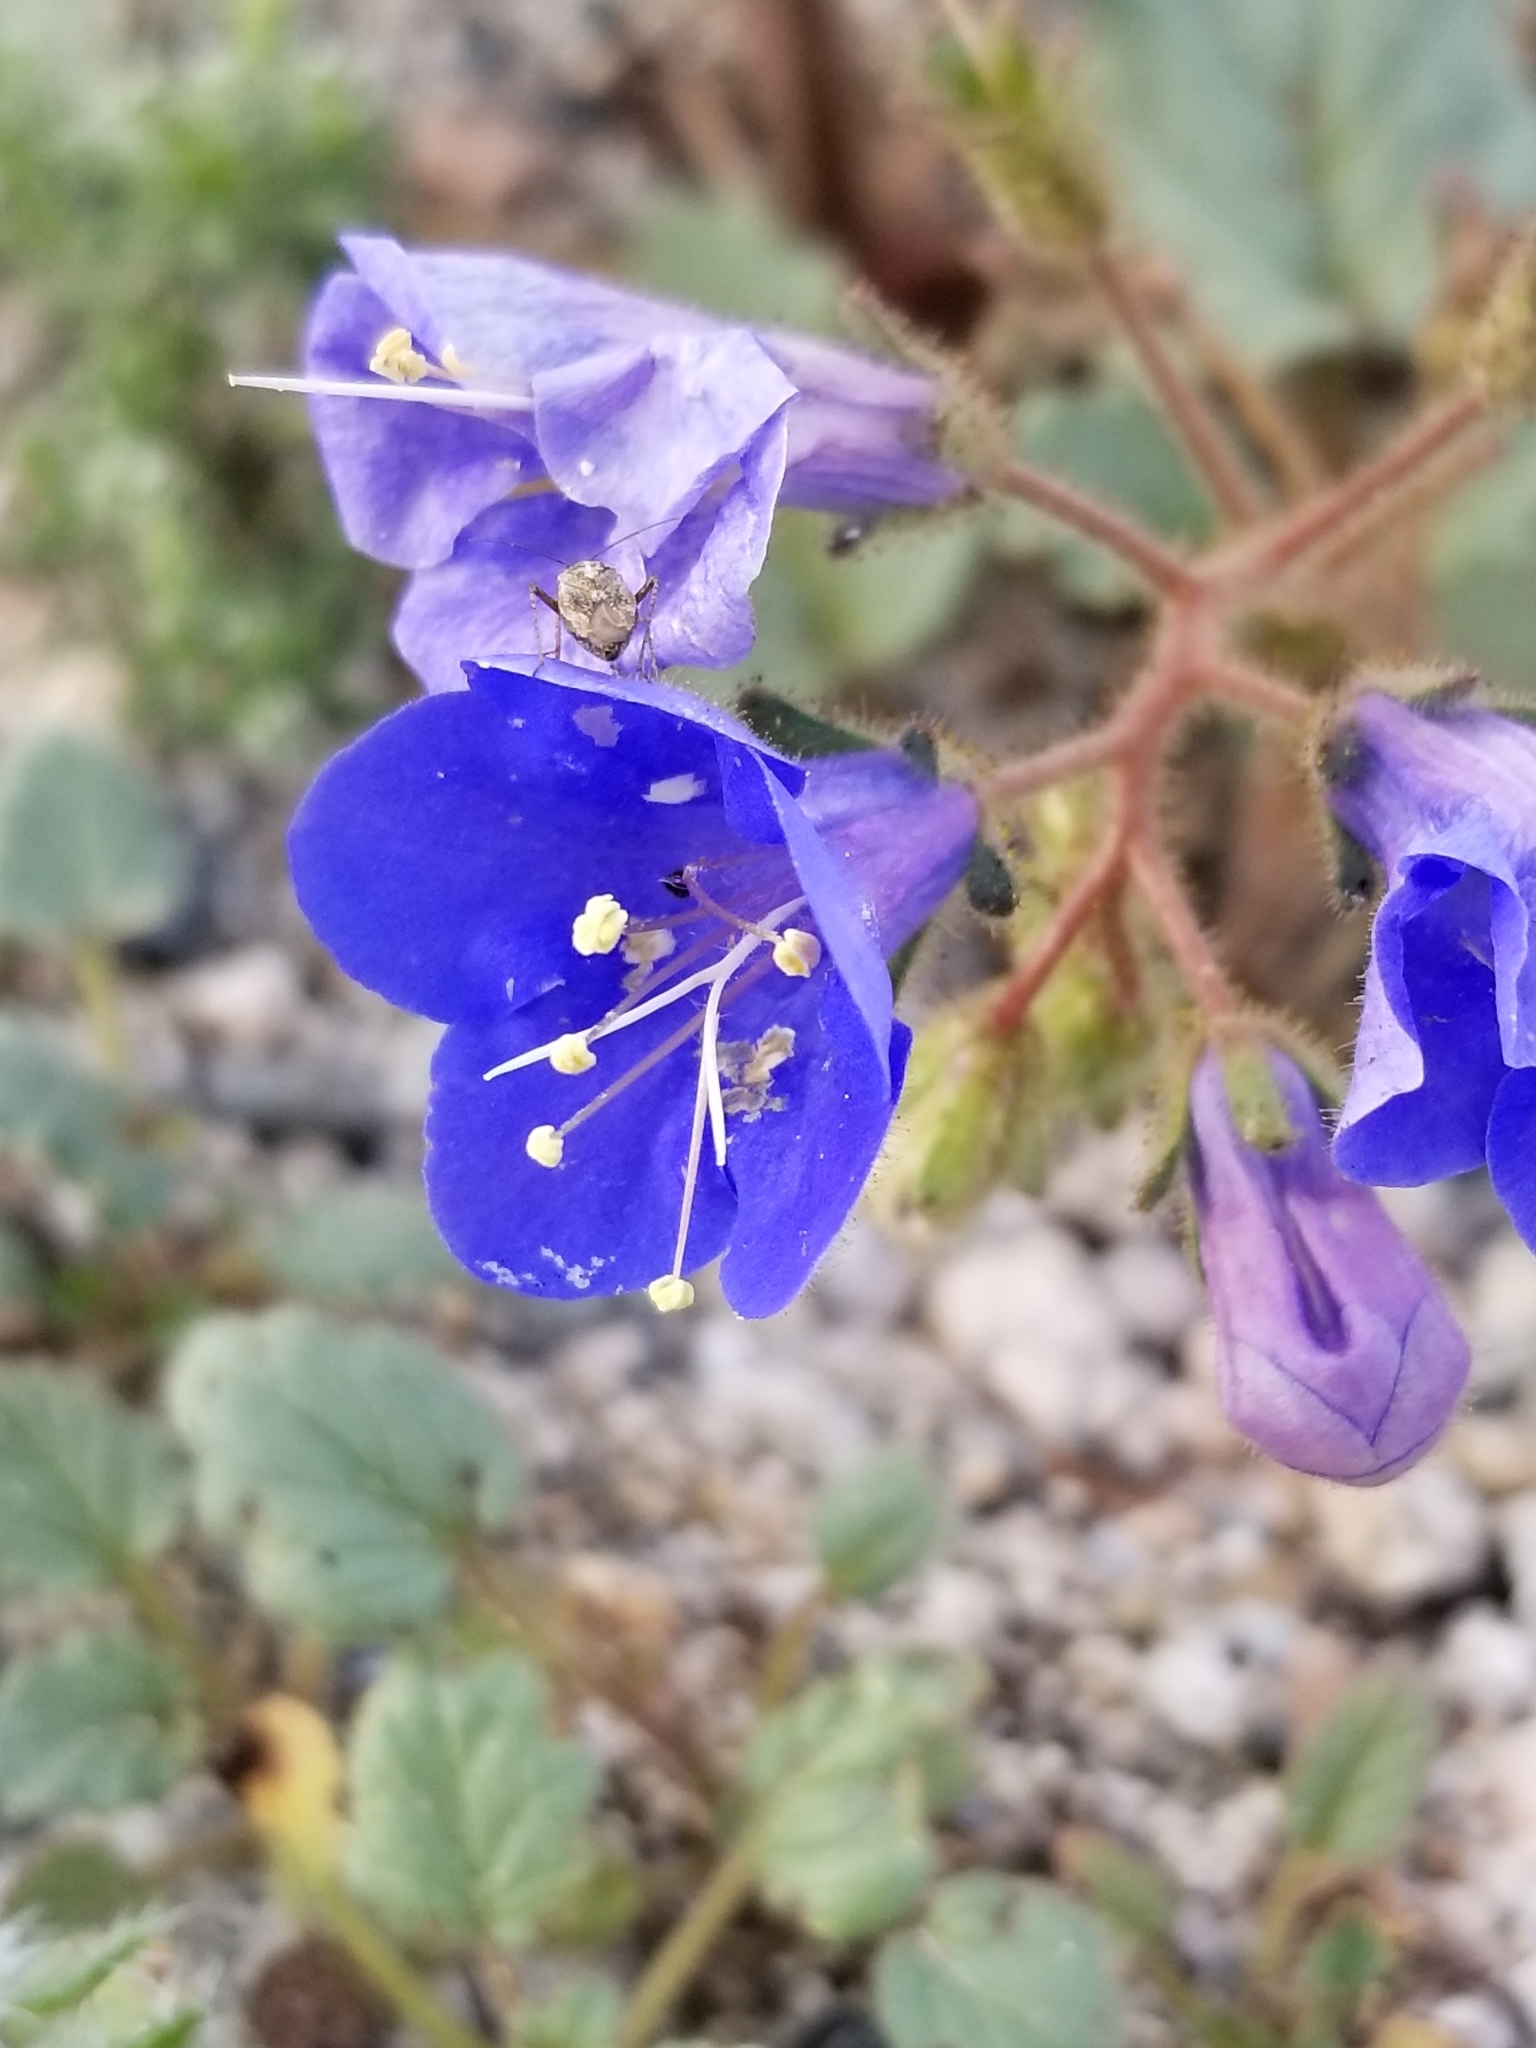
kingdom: Plantae
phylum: Tracheophyta
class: Magnoliopsida
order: Boraginales
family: Hydrophyllaceae
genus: Phacelia
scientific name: Phacelia campanularia
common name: California bluebell
